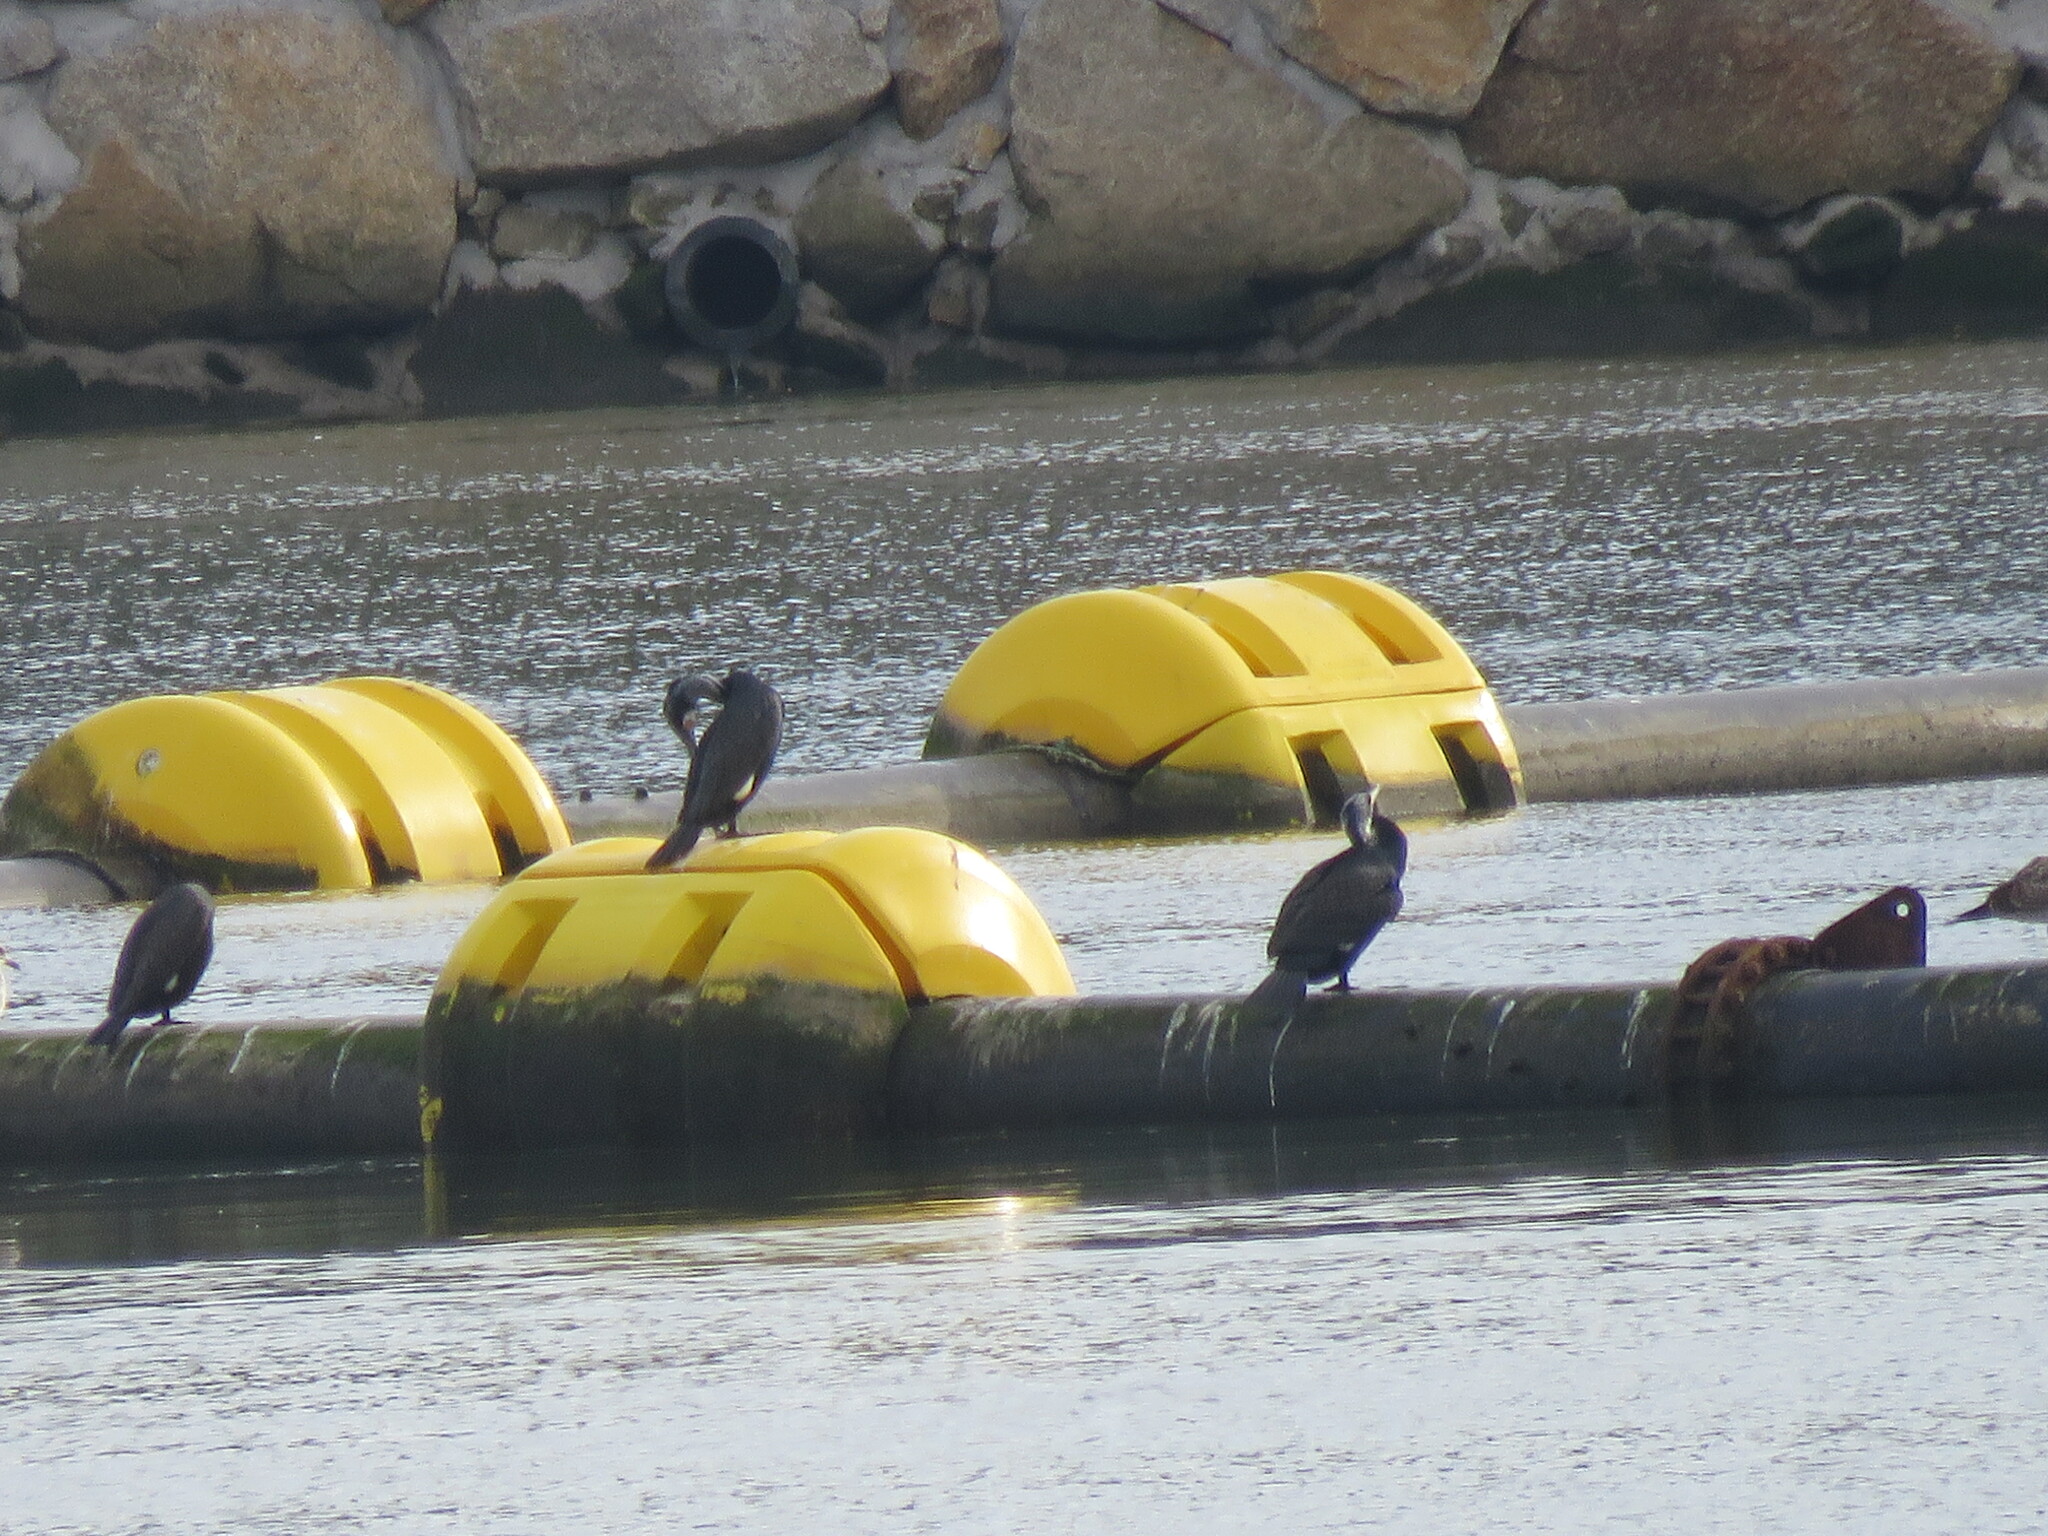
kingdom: Animalia
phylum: Chordata
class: Aves
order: Suliformes
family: Phalacrocoracidae
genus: Phalacrocorax
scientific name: Phalacrocorax carbo
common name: Great cormorant
